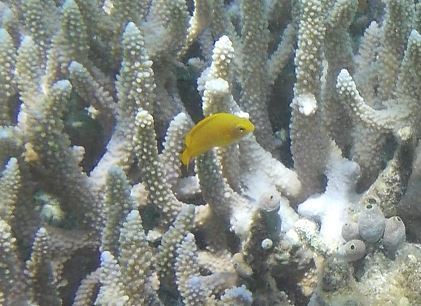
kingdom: Animalia
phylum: Chordata
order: Perciformes
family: Pomacentridae
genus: Pomacentrus
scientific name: Pomacentrus moluccensis
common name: Lemon damsel
